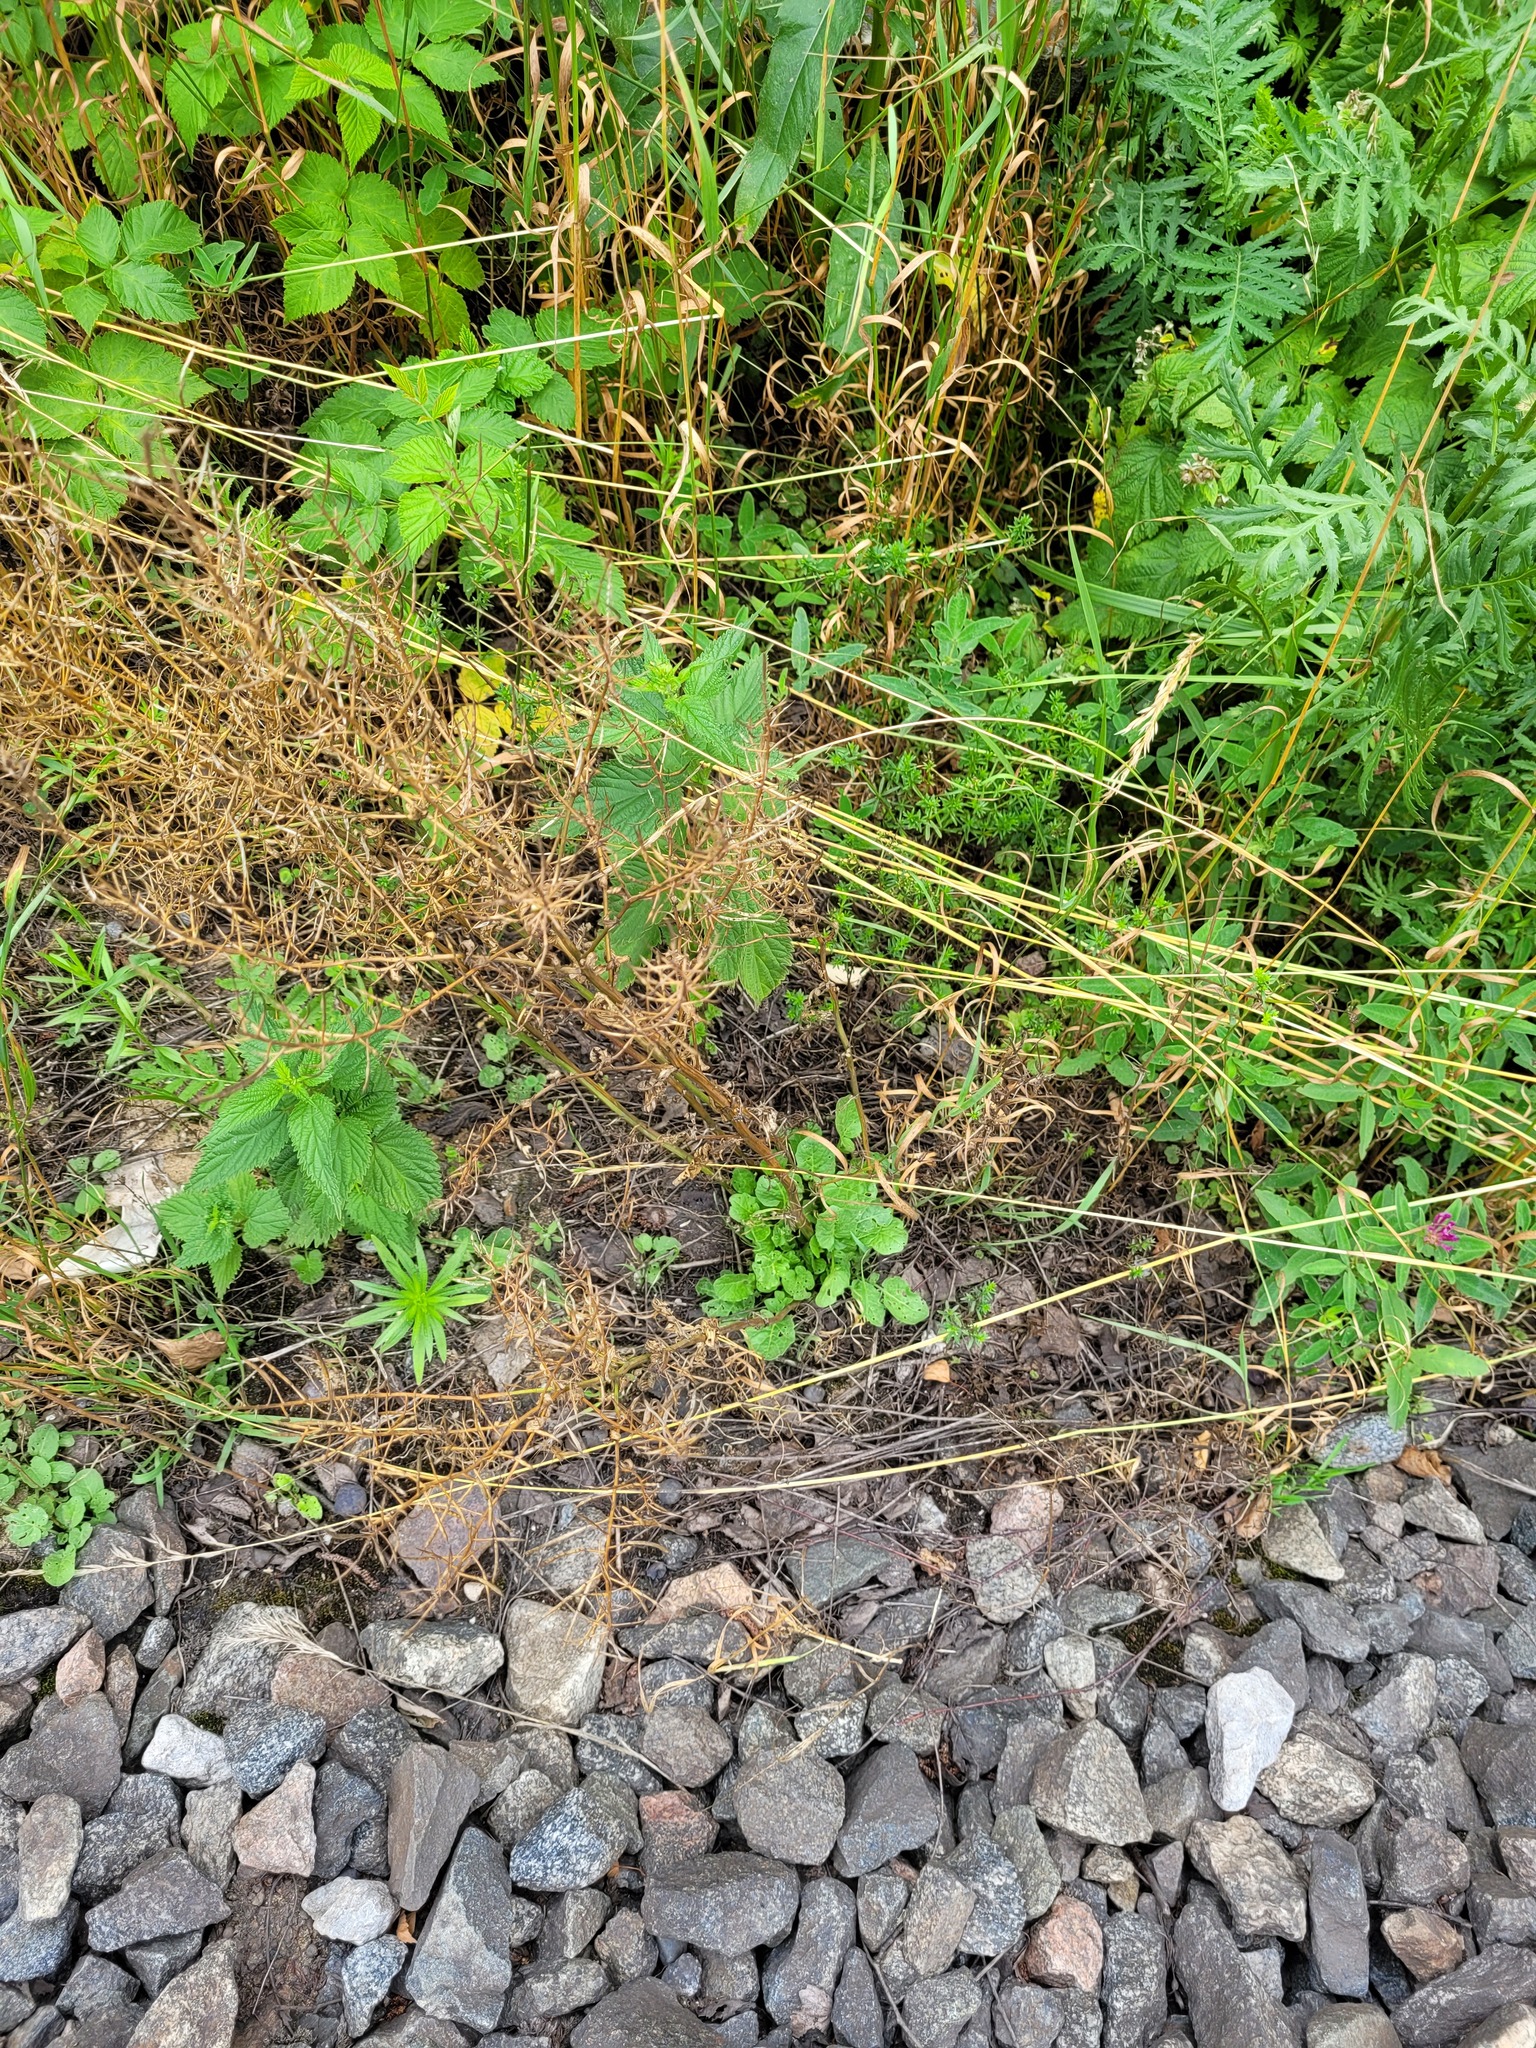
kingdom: Plantae
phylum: Tracheophyta
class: Magnoliopsida
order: Brassicales
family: Brassicaceae
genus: Barbarea
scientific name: Barbarea vulgaris
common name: Cressy-greens
